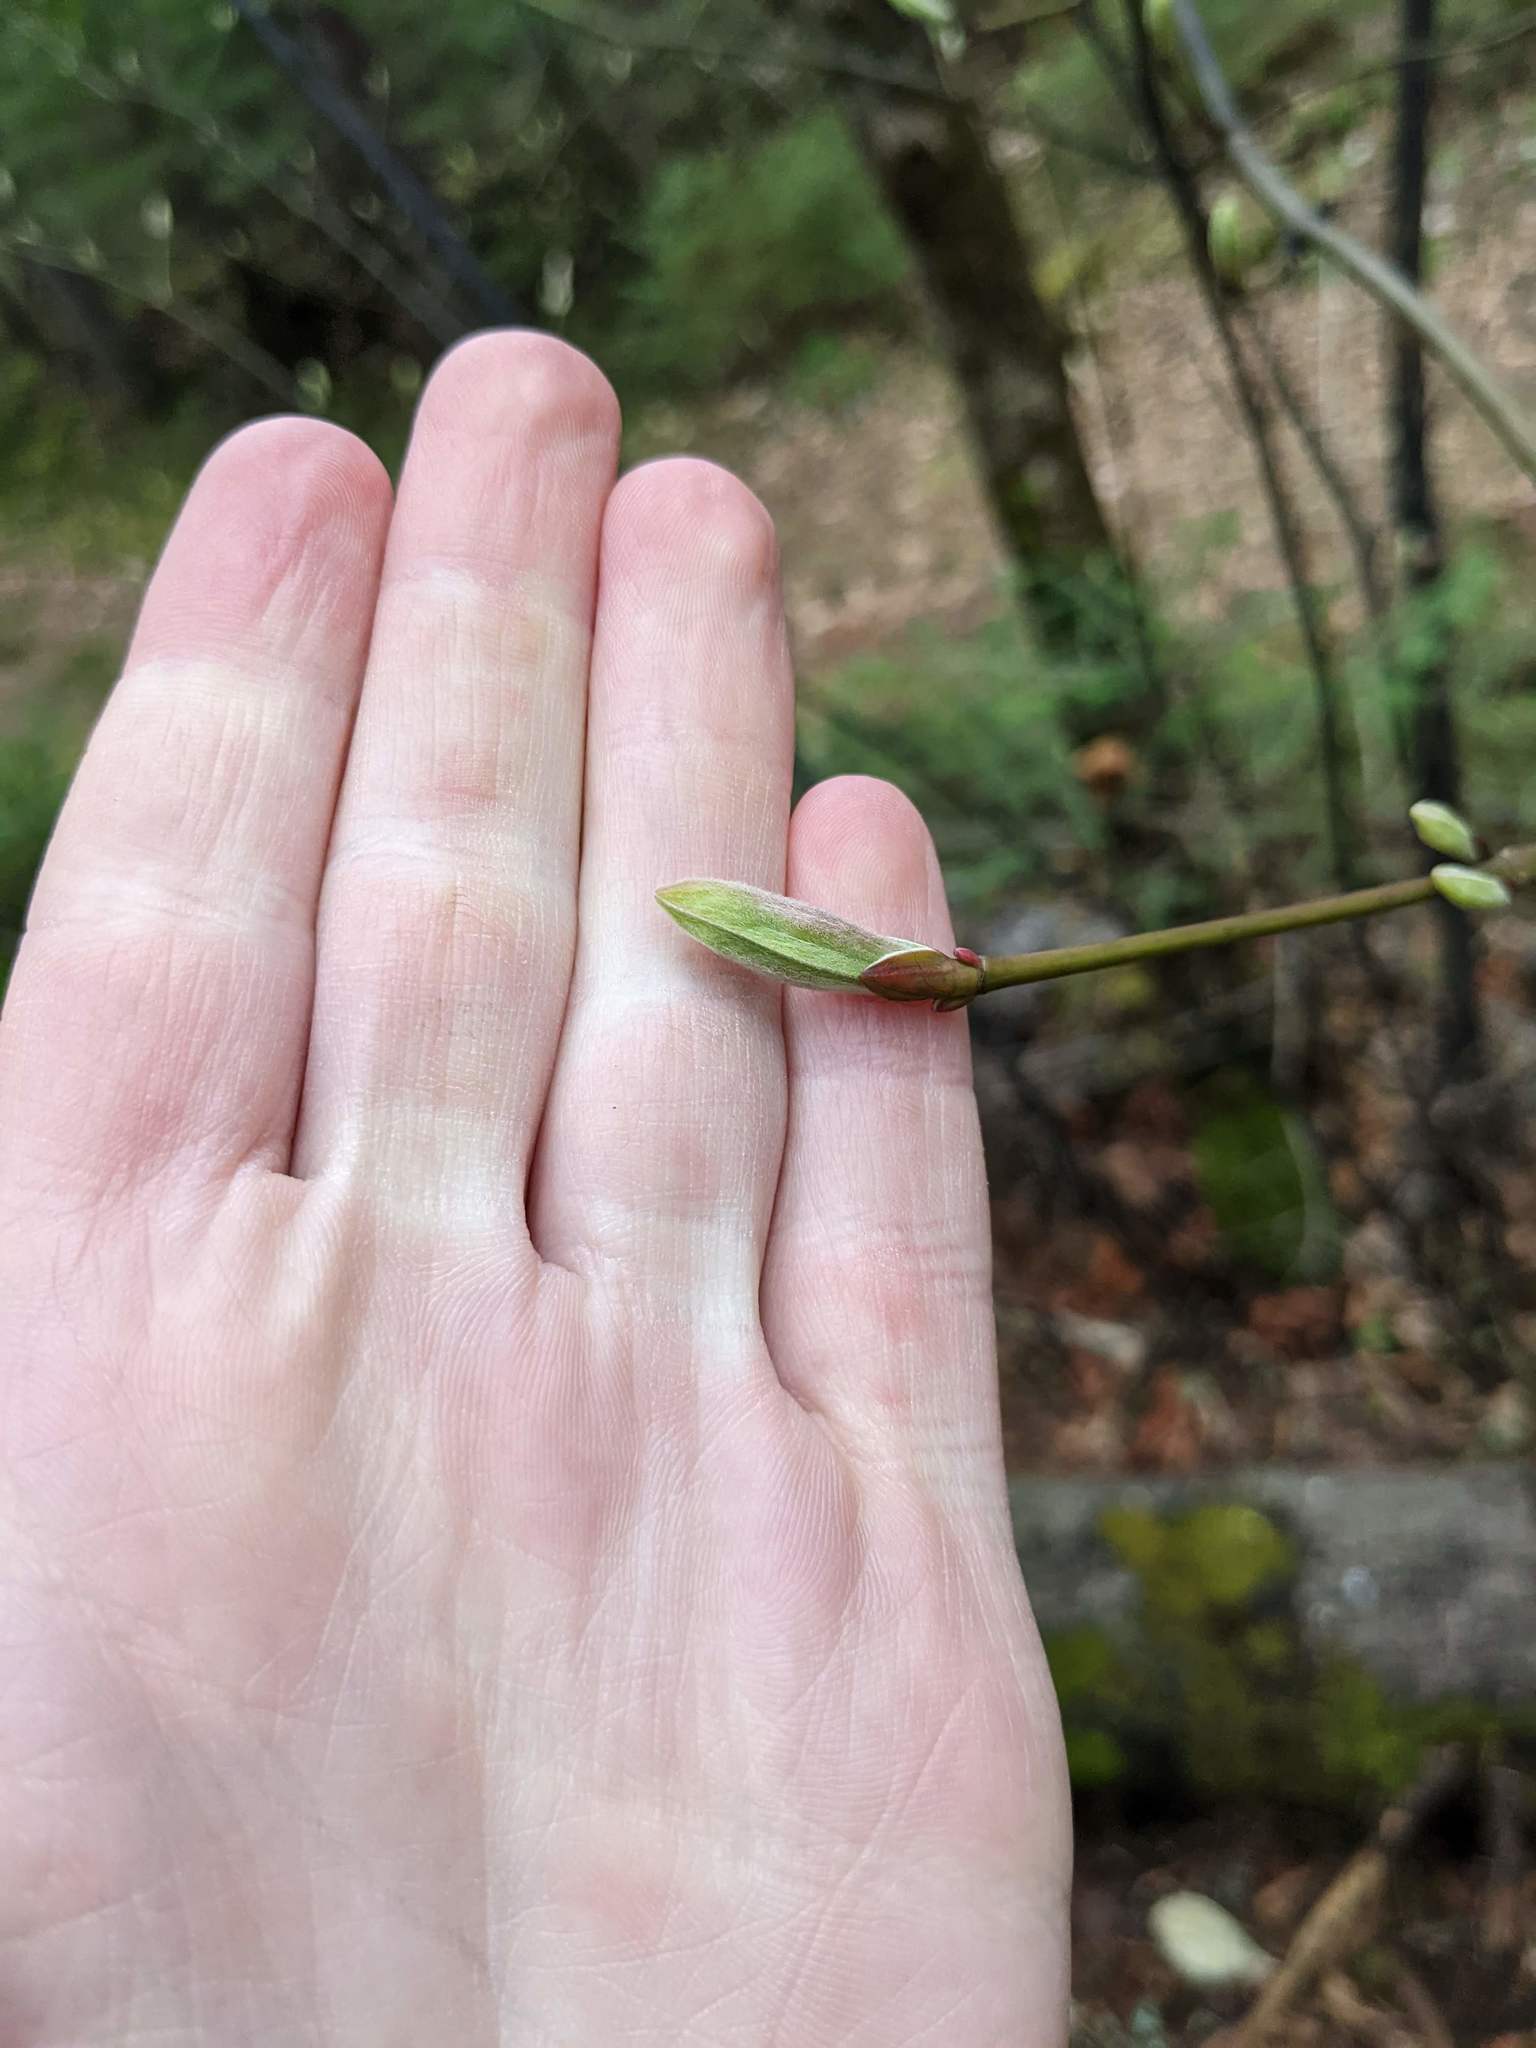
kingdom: Plantae
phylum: Tracheophyta
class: Magnoliopsida
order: Sapindales
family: Sapindaceae
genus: Acer
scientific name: Acer pensylvanicum
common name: Moosewood
